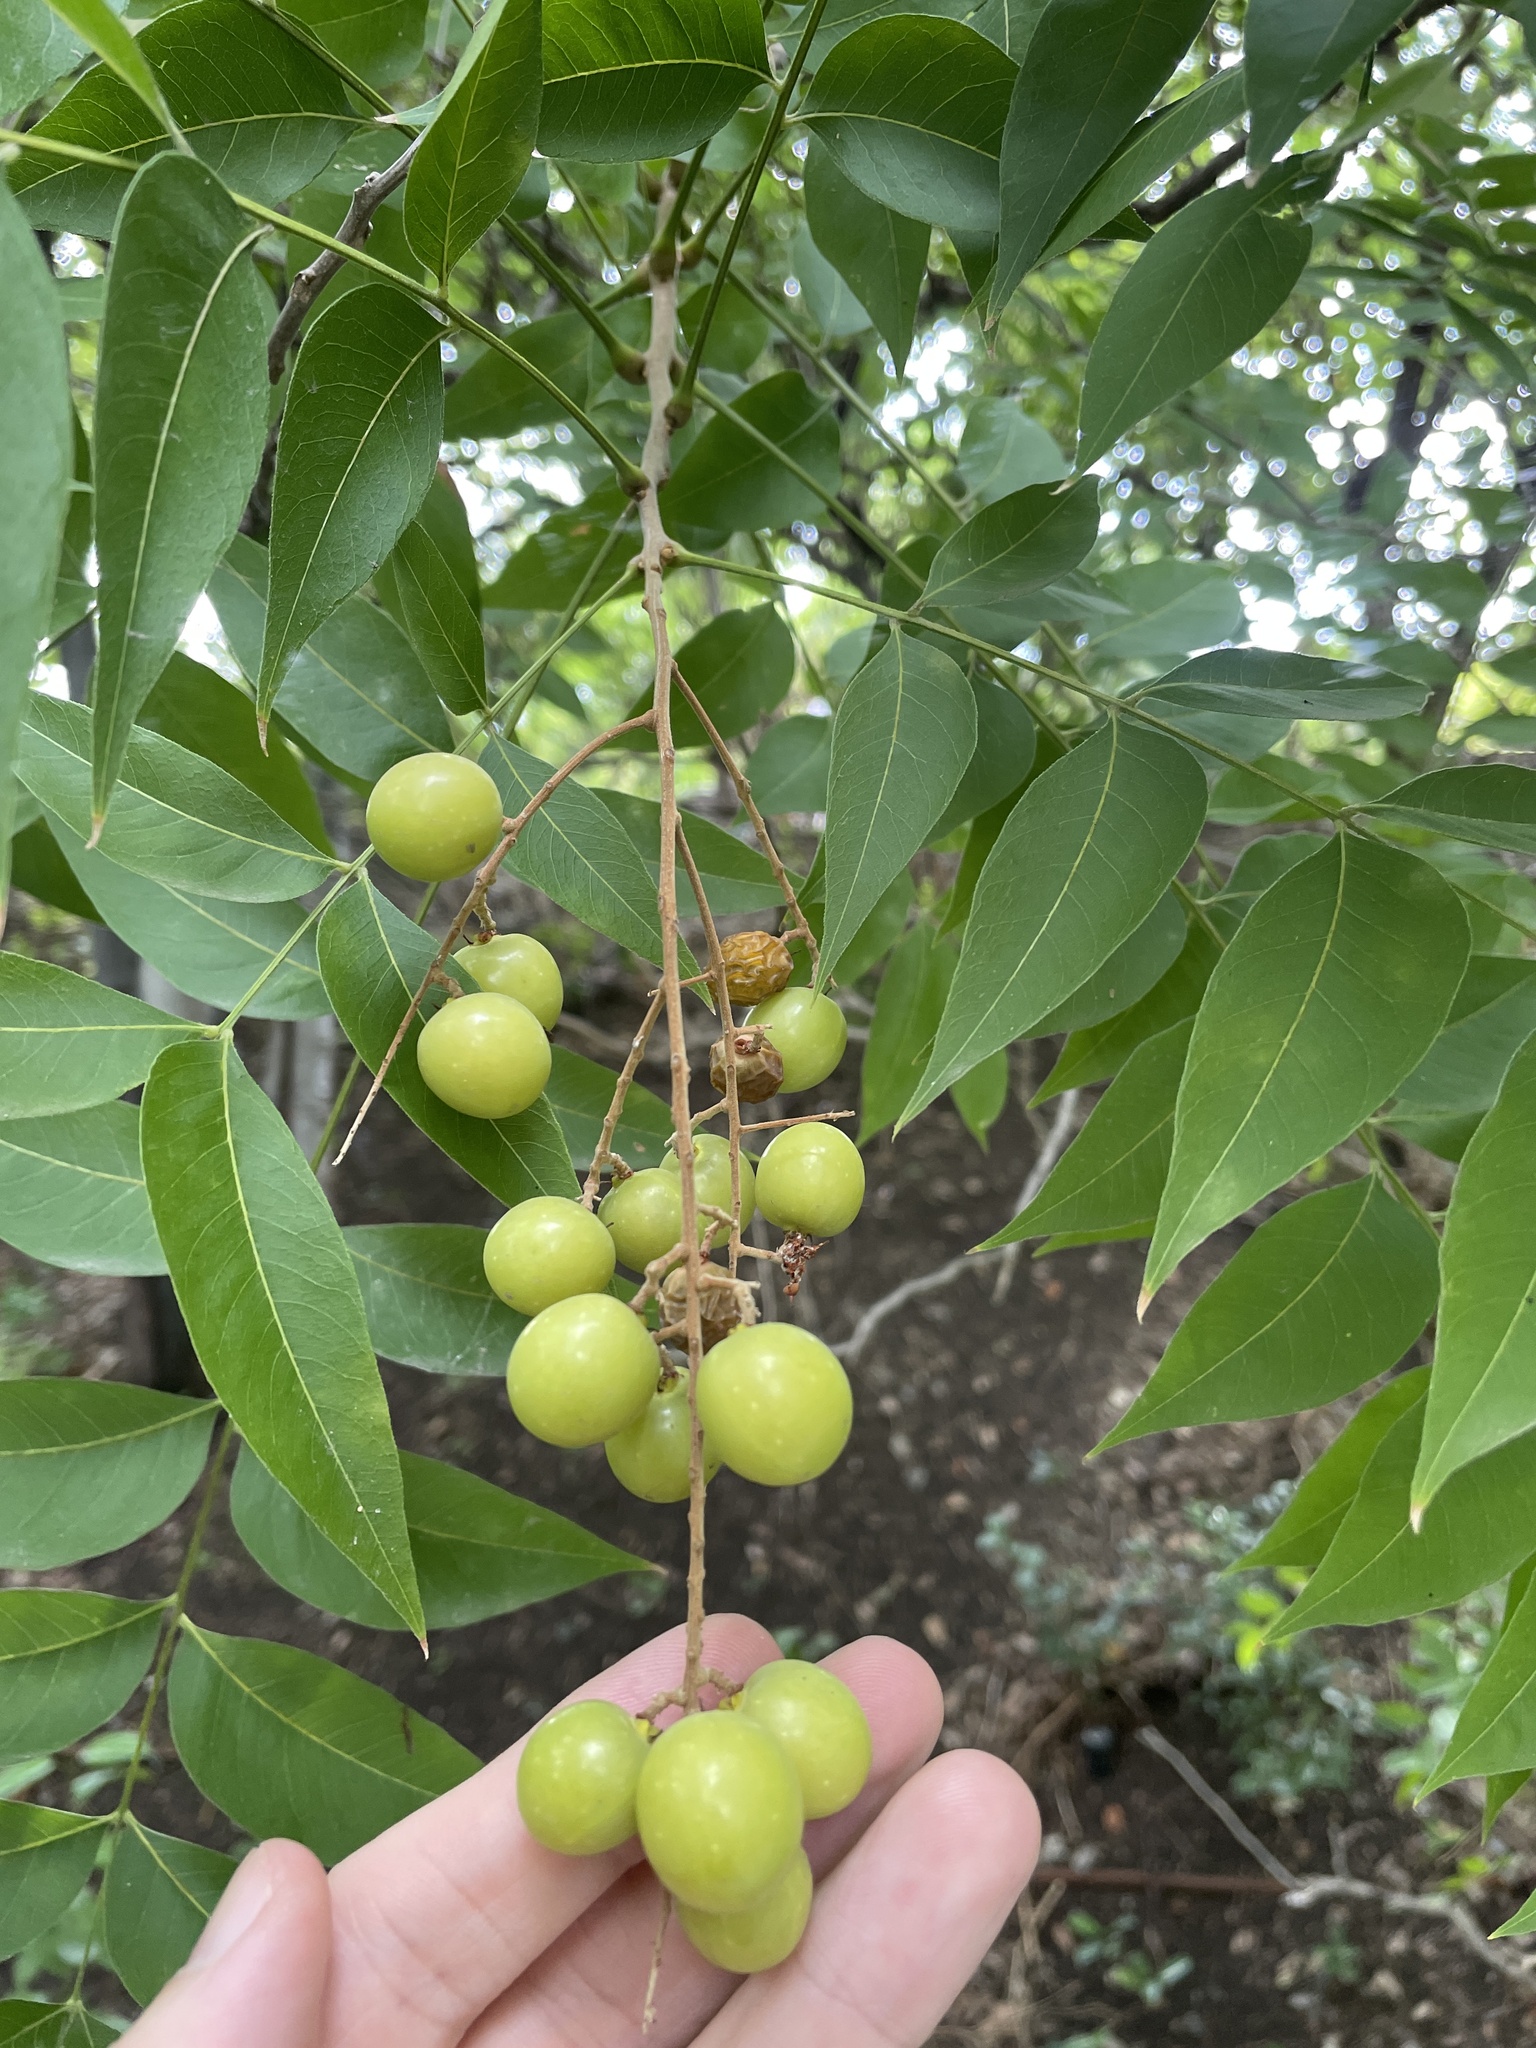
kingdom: Plantae
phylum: Tracheophyta
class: Magnoliopsida
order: Sapindales
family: Sapindaceae
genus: Sapindus
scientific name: Sapindus drummondii
